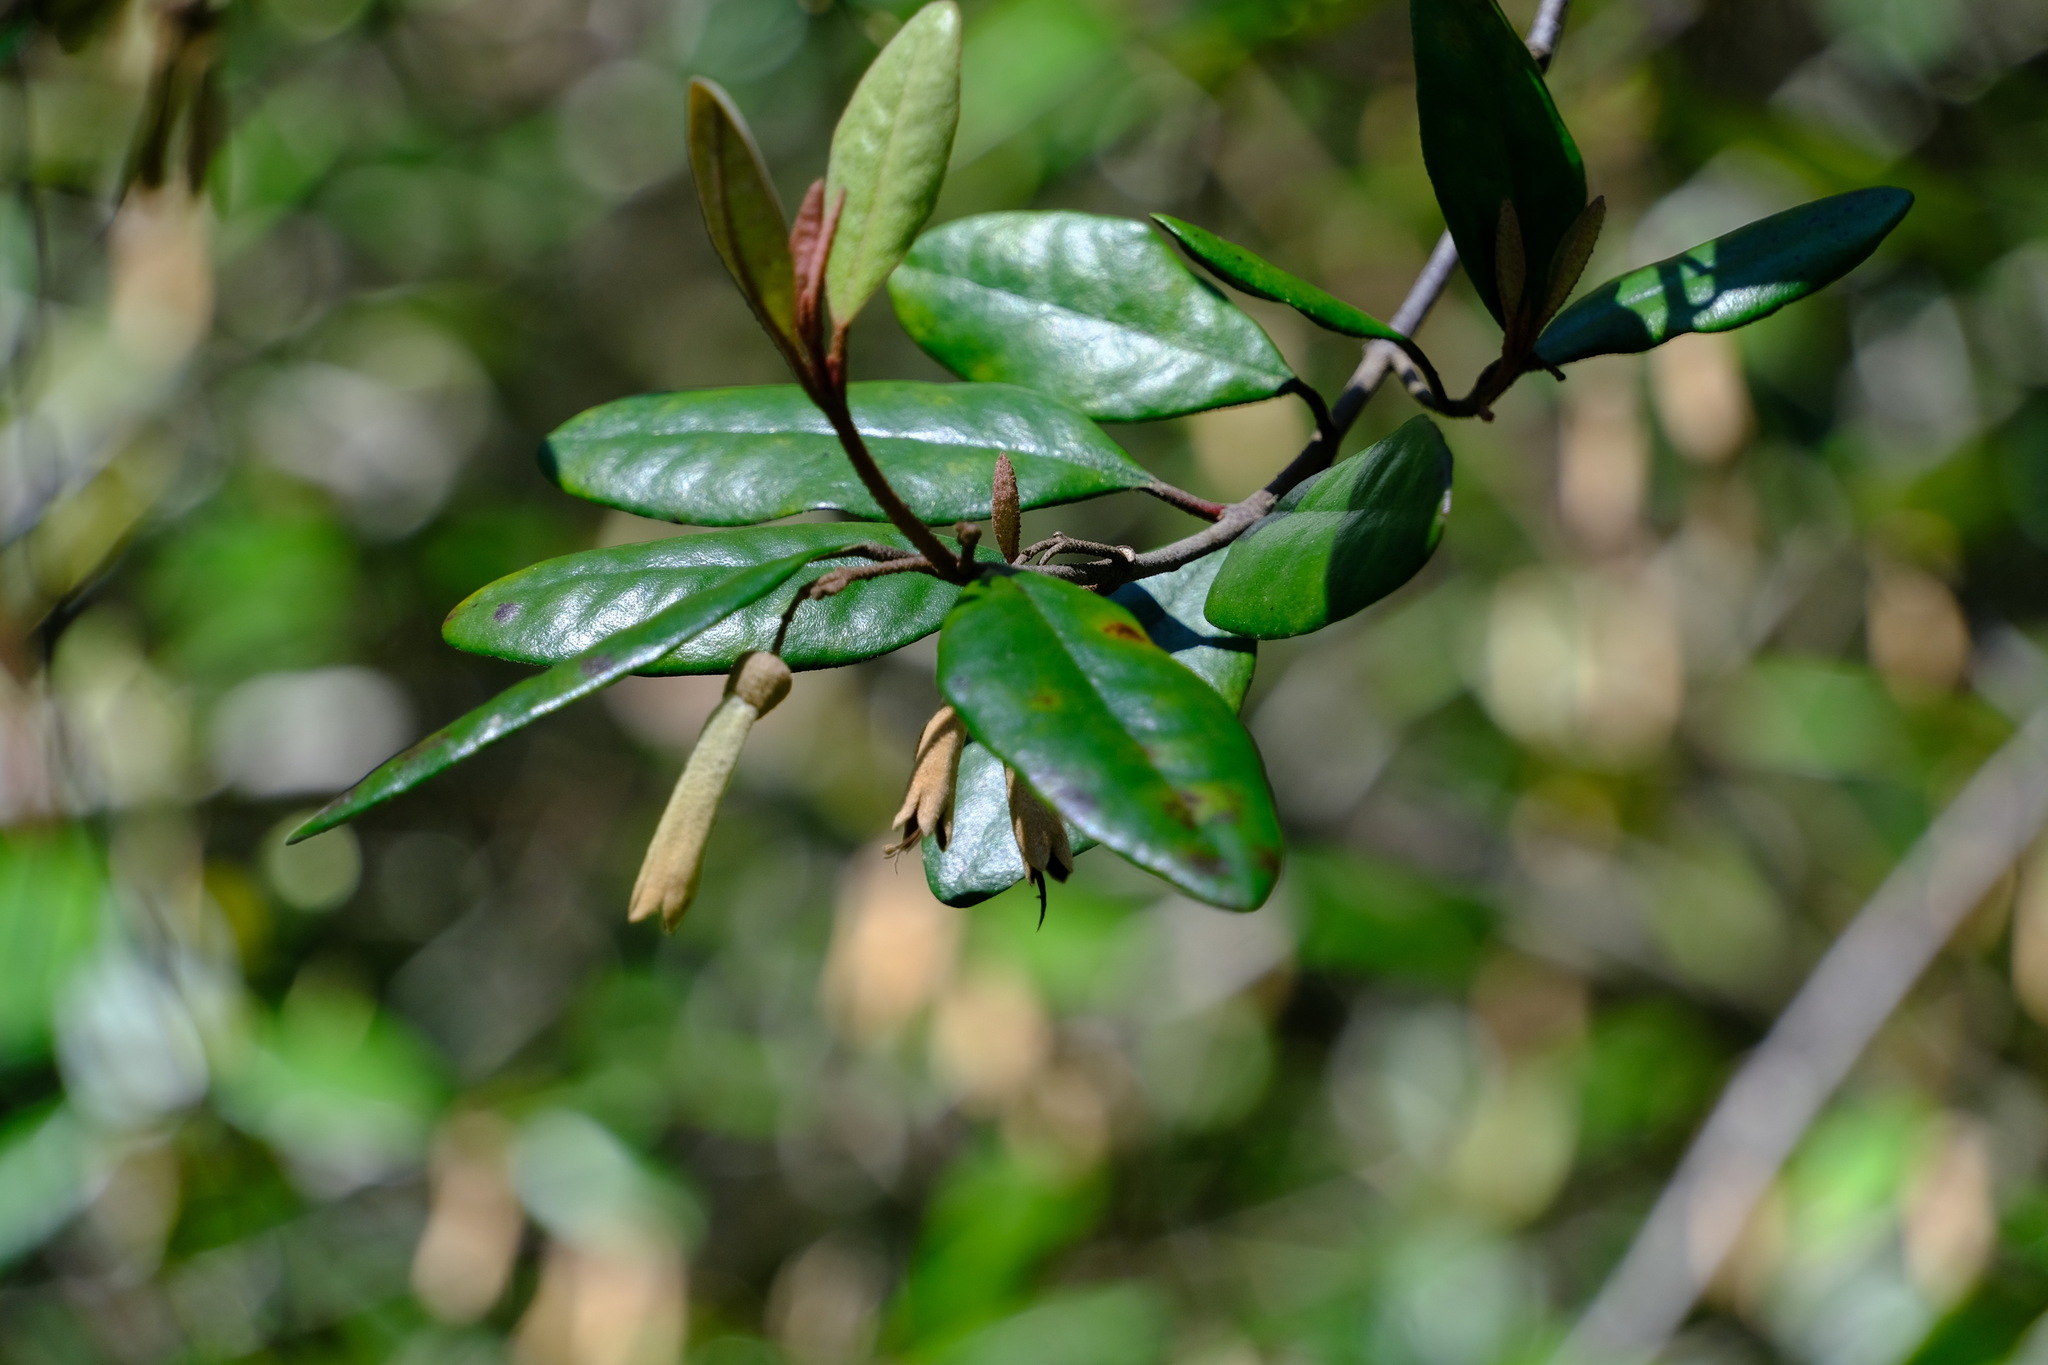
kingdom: Plantae
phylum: Tracheophyta
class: Magnoliopsida
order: Sapindales
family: Rutaceae
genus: Correa
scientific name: Correa lawrenceana
